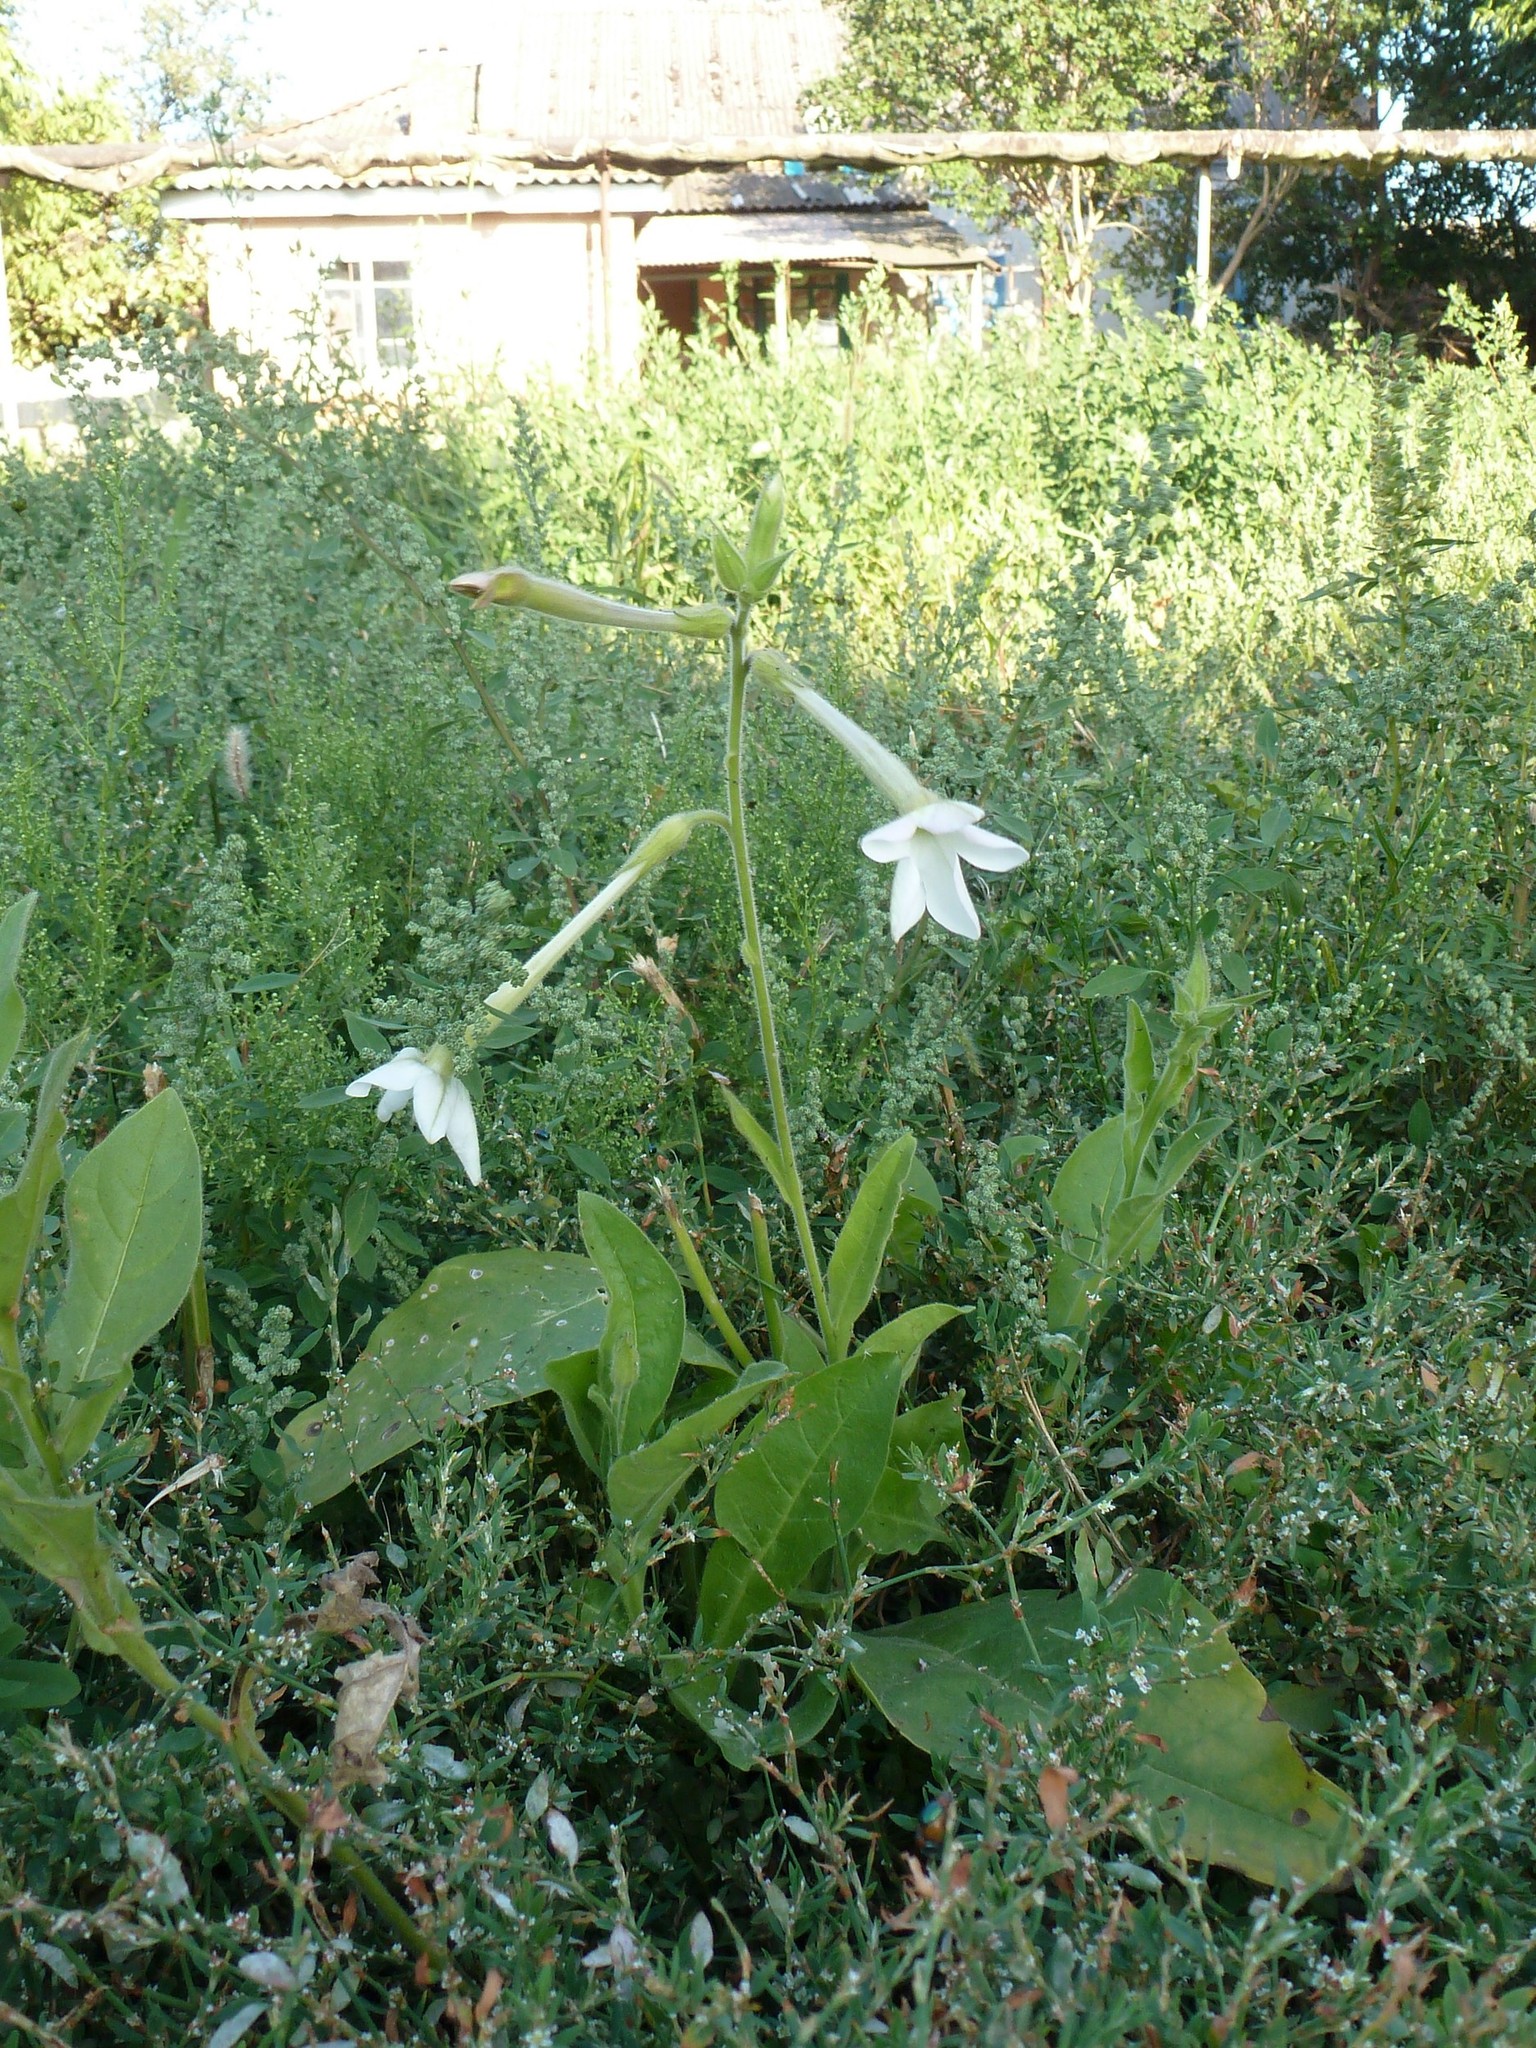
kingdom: Plantae
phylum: Tracheophyta
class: Magnoliopsida
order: Solanales
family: Solanaceae
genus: Nicotiana
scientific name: Nicotiana alata
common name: Jasmine tobacco
